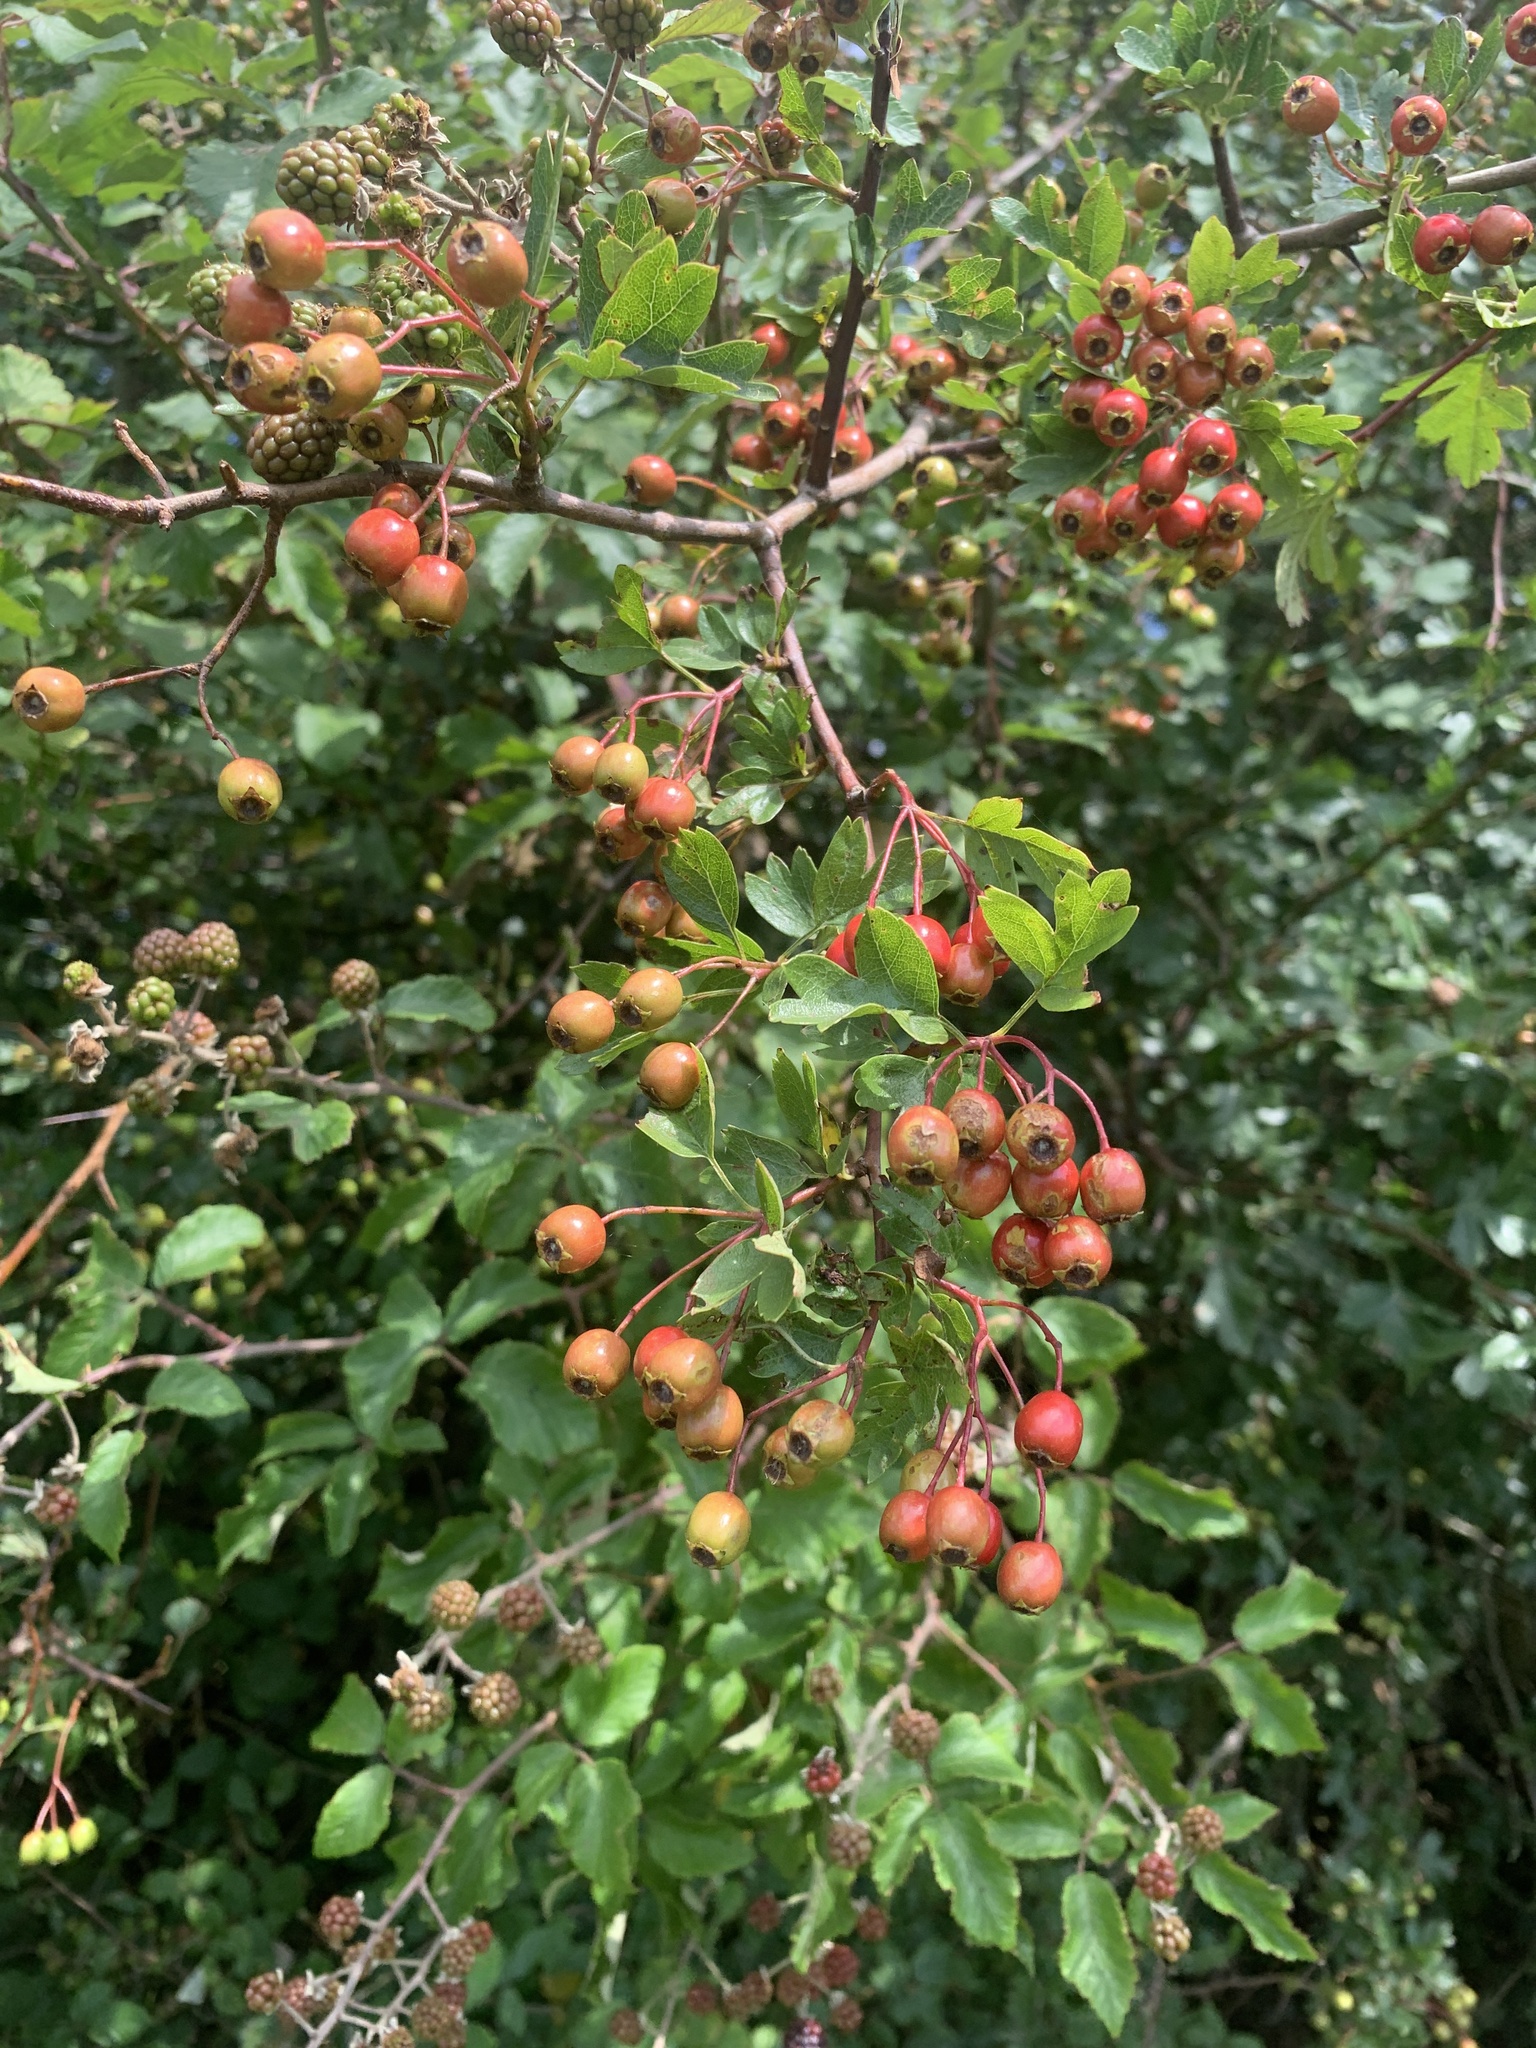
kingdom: Plantae
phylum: Tracheophyta
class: Magnoliopsida
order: Rosales
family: Rosaceae
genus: Crataegus
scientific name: Crataegus monogyna
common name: Hawthorn
